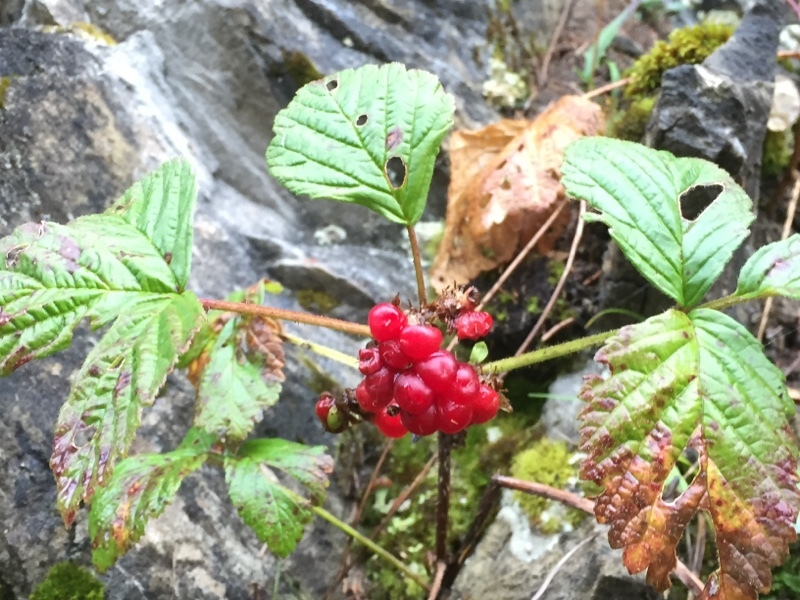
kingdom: Plantae
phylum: Tracheophyta
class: Magnoliopsida
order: Rosales
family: Rosaceae
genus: Rubus
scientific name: Rubus saxatilis
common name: Stone bramble
